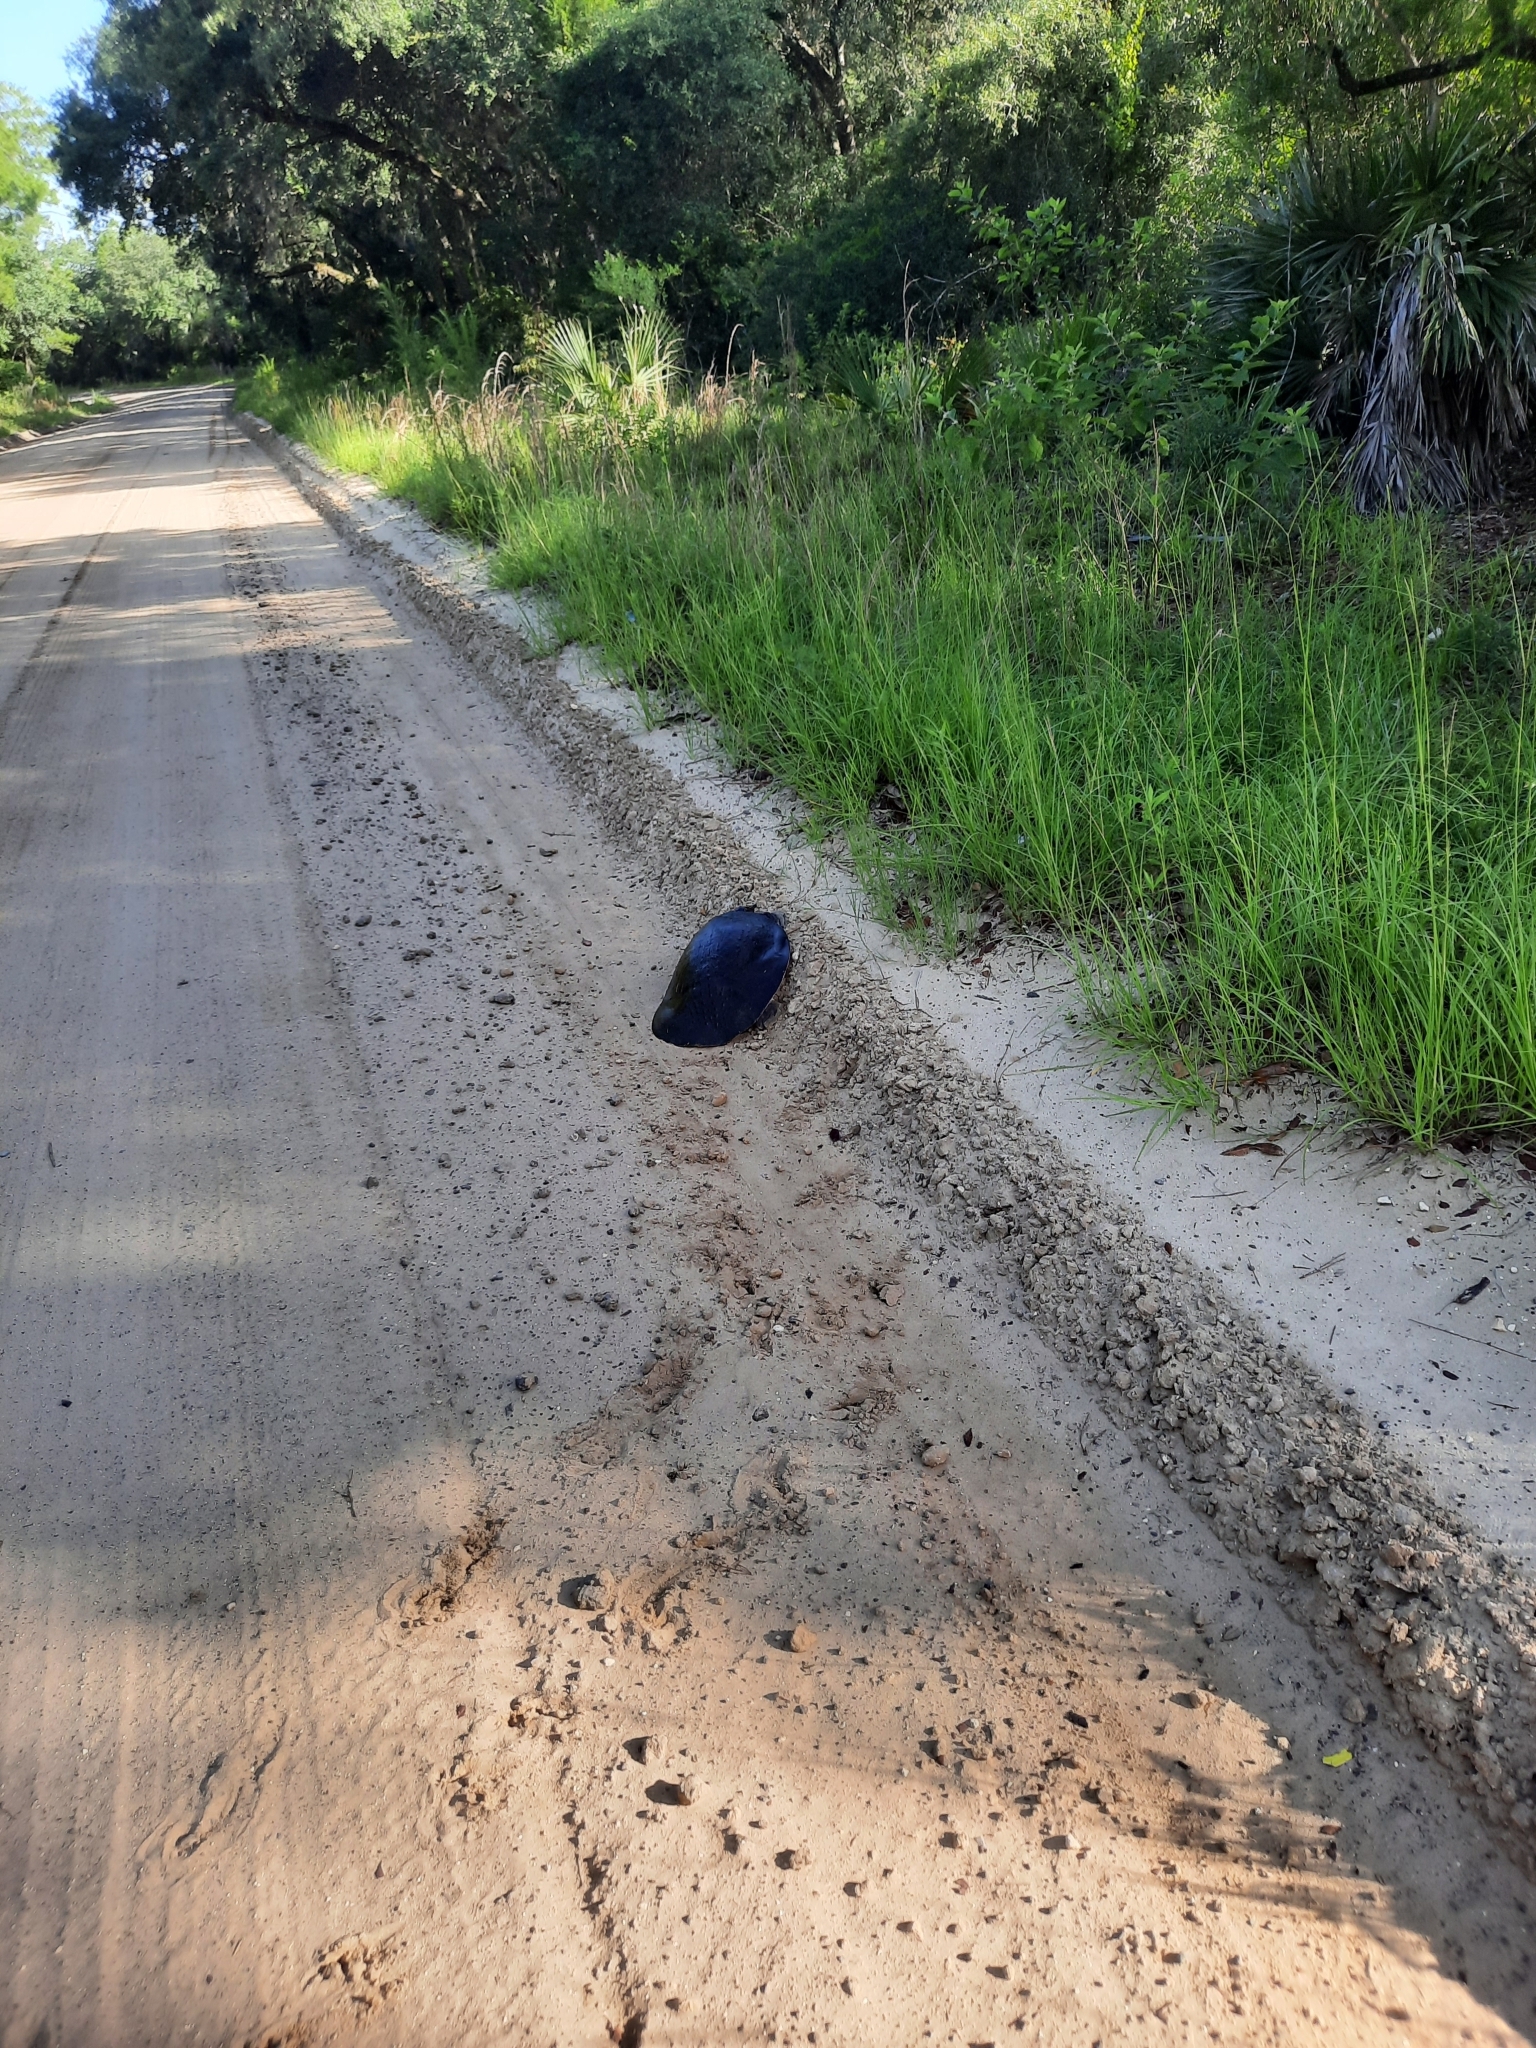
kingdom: Animalia
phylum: Chordata
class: Testudines
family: Trionychidae
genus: Apalone
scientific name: Apalone ferox
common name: Florida softshell turtle
